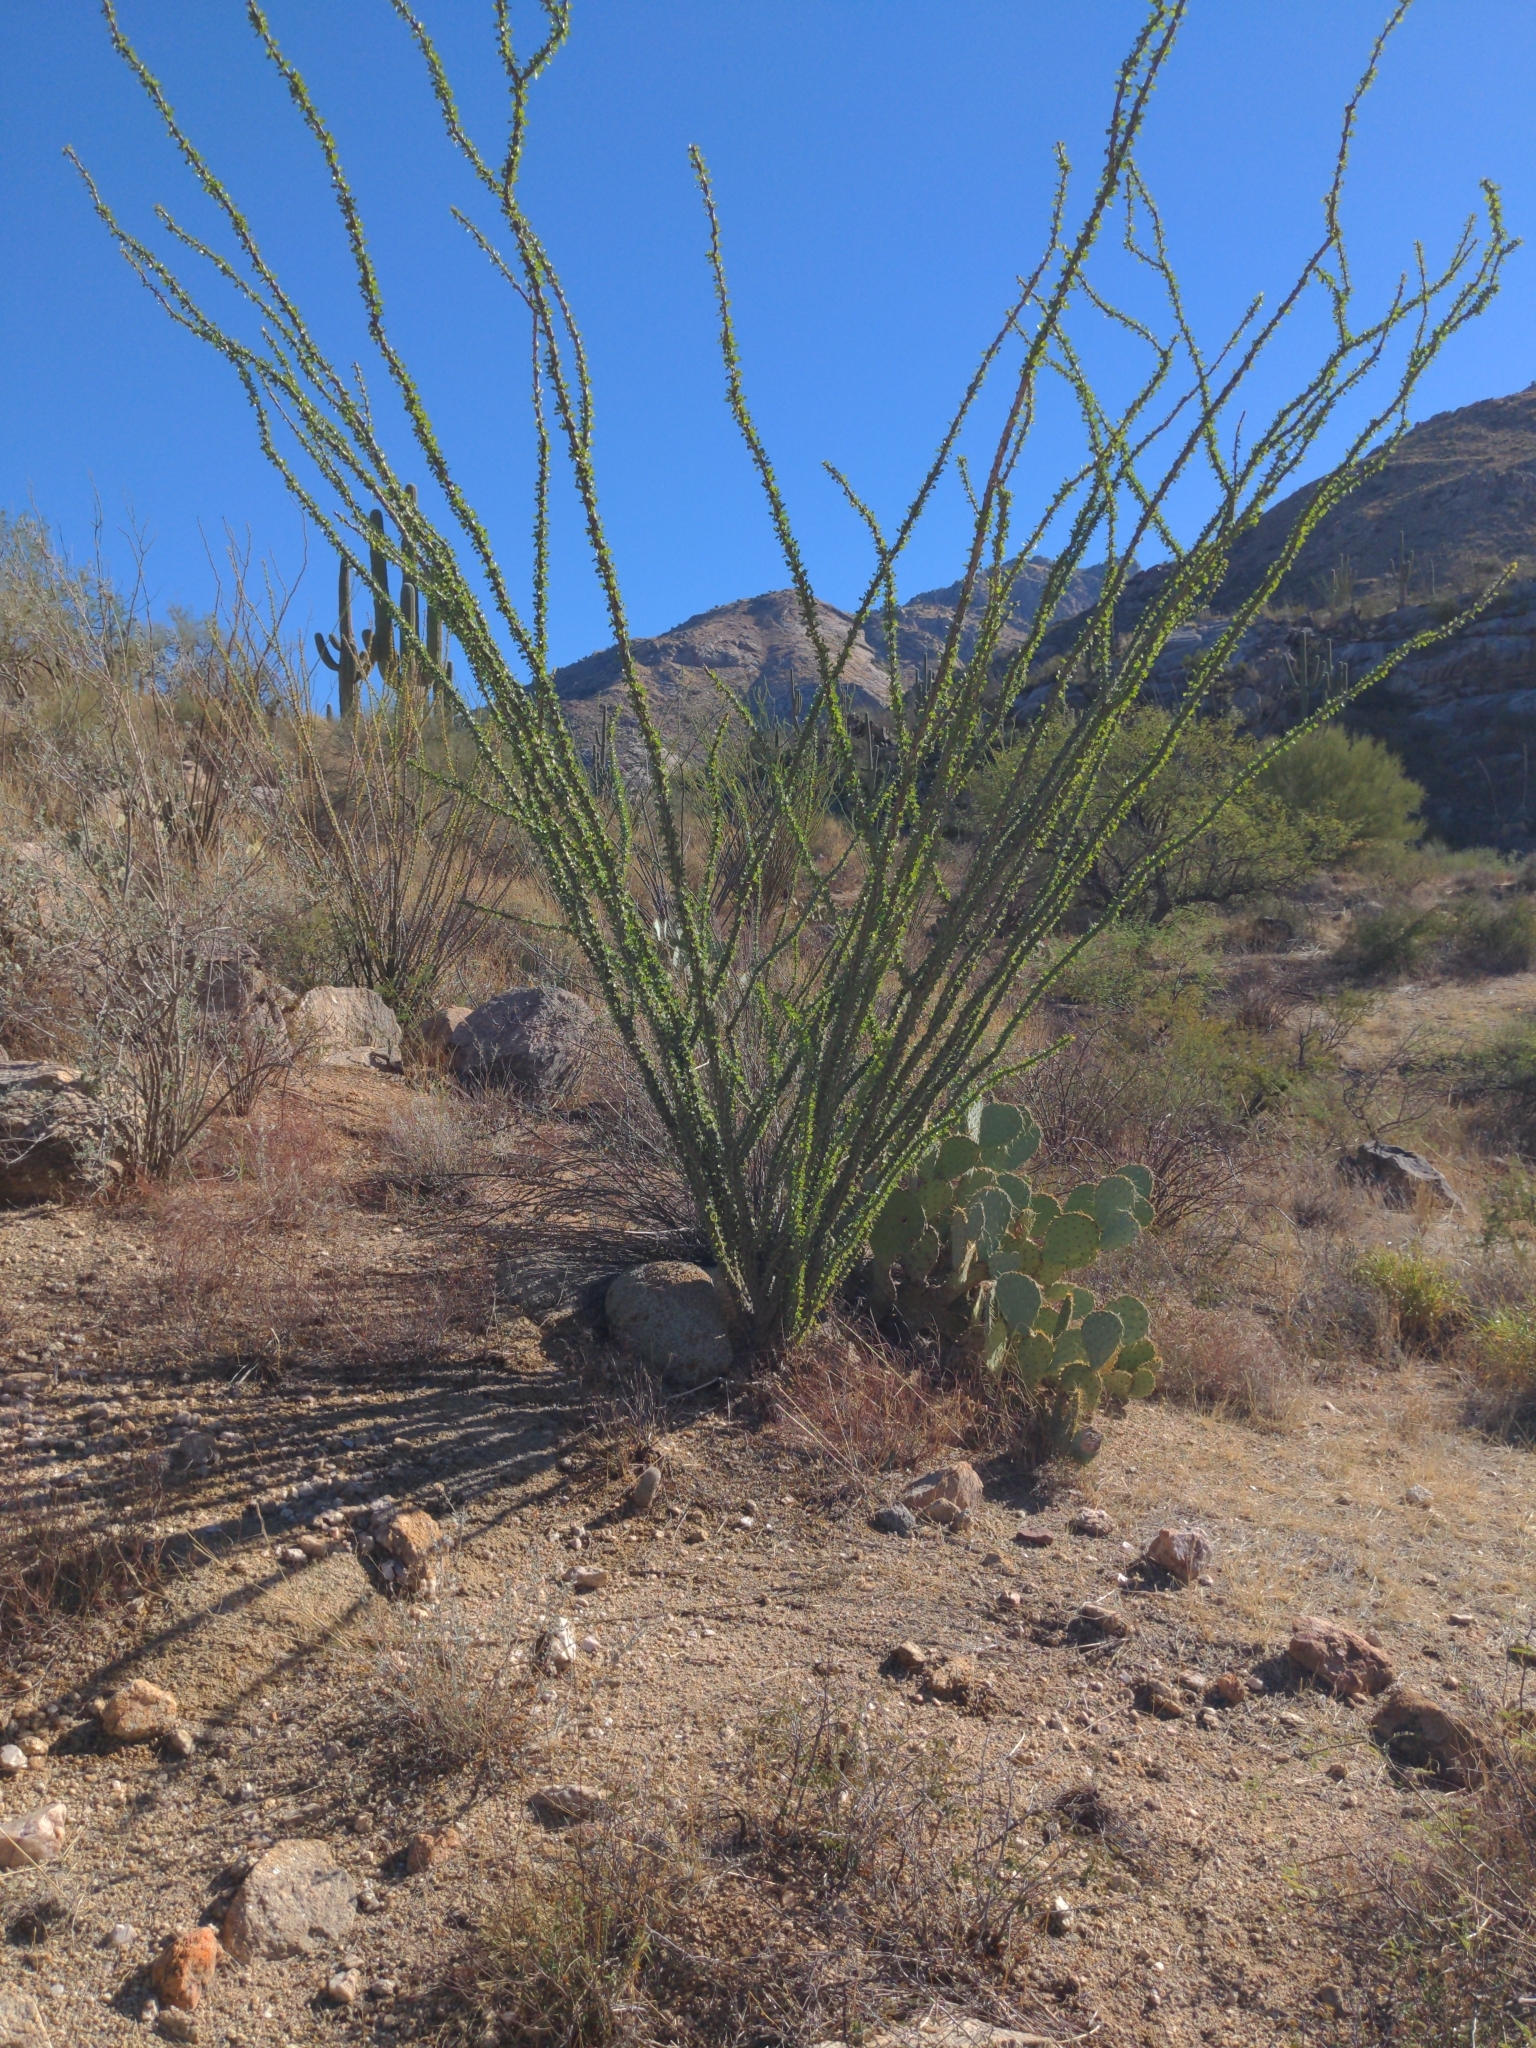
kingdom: Plantae
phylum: Tracheophyta
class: Magnoliopsida
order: Ericales
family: Fouquieriaceae
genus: Fouquieria
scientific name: Fouquieria splendens
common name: Vine-cactus
